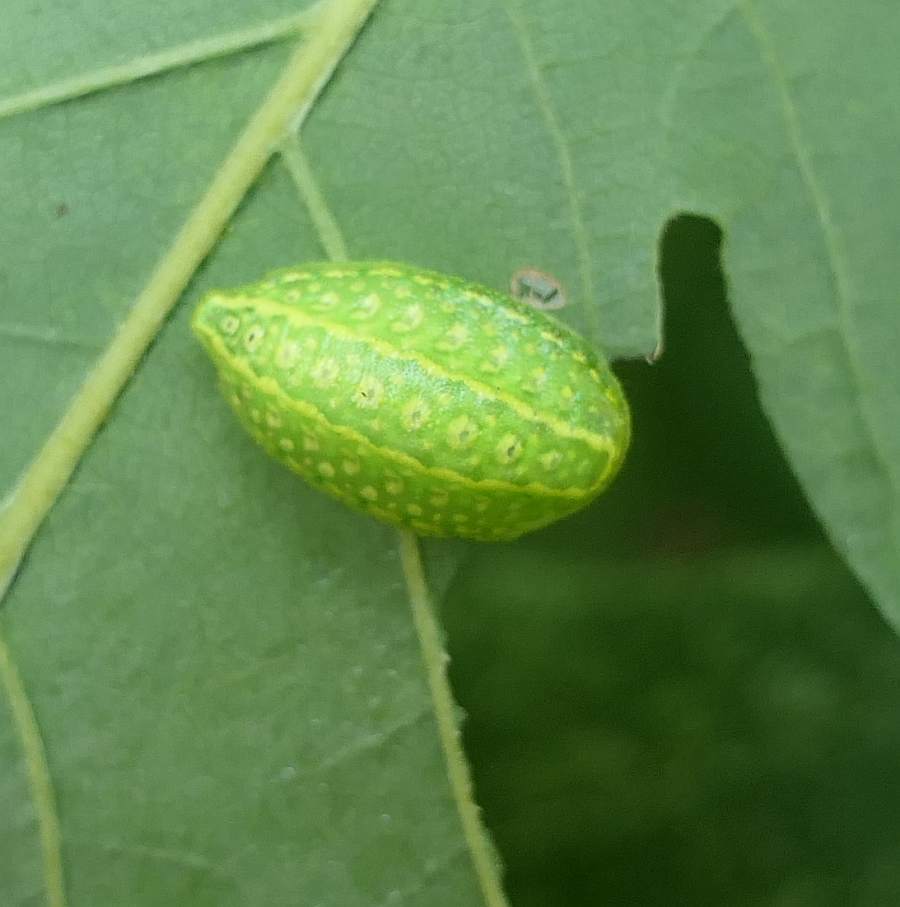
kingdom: Animalia
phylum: Arthropoda
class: Insecta
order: Lepidoptera
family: Limacodidae
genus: Lithacodes
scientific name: Lithacodes fasciola
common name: Yellow-shouldered slug moth
